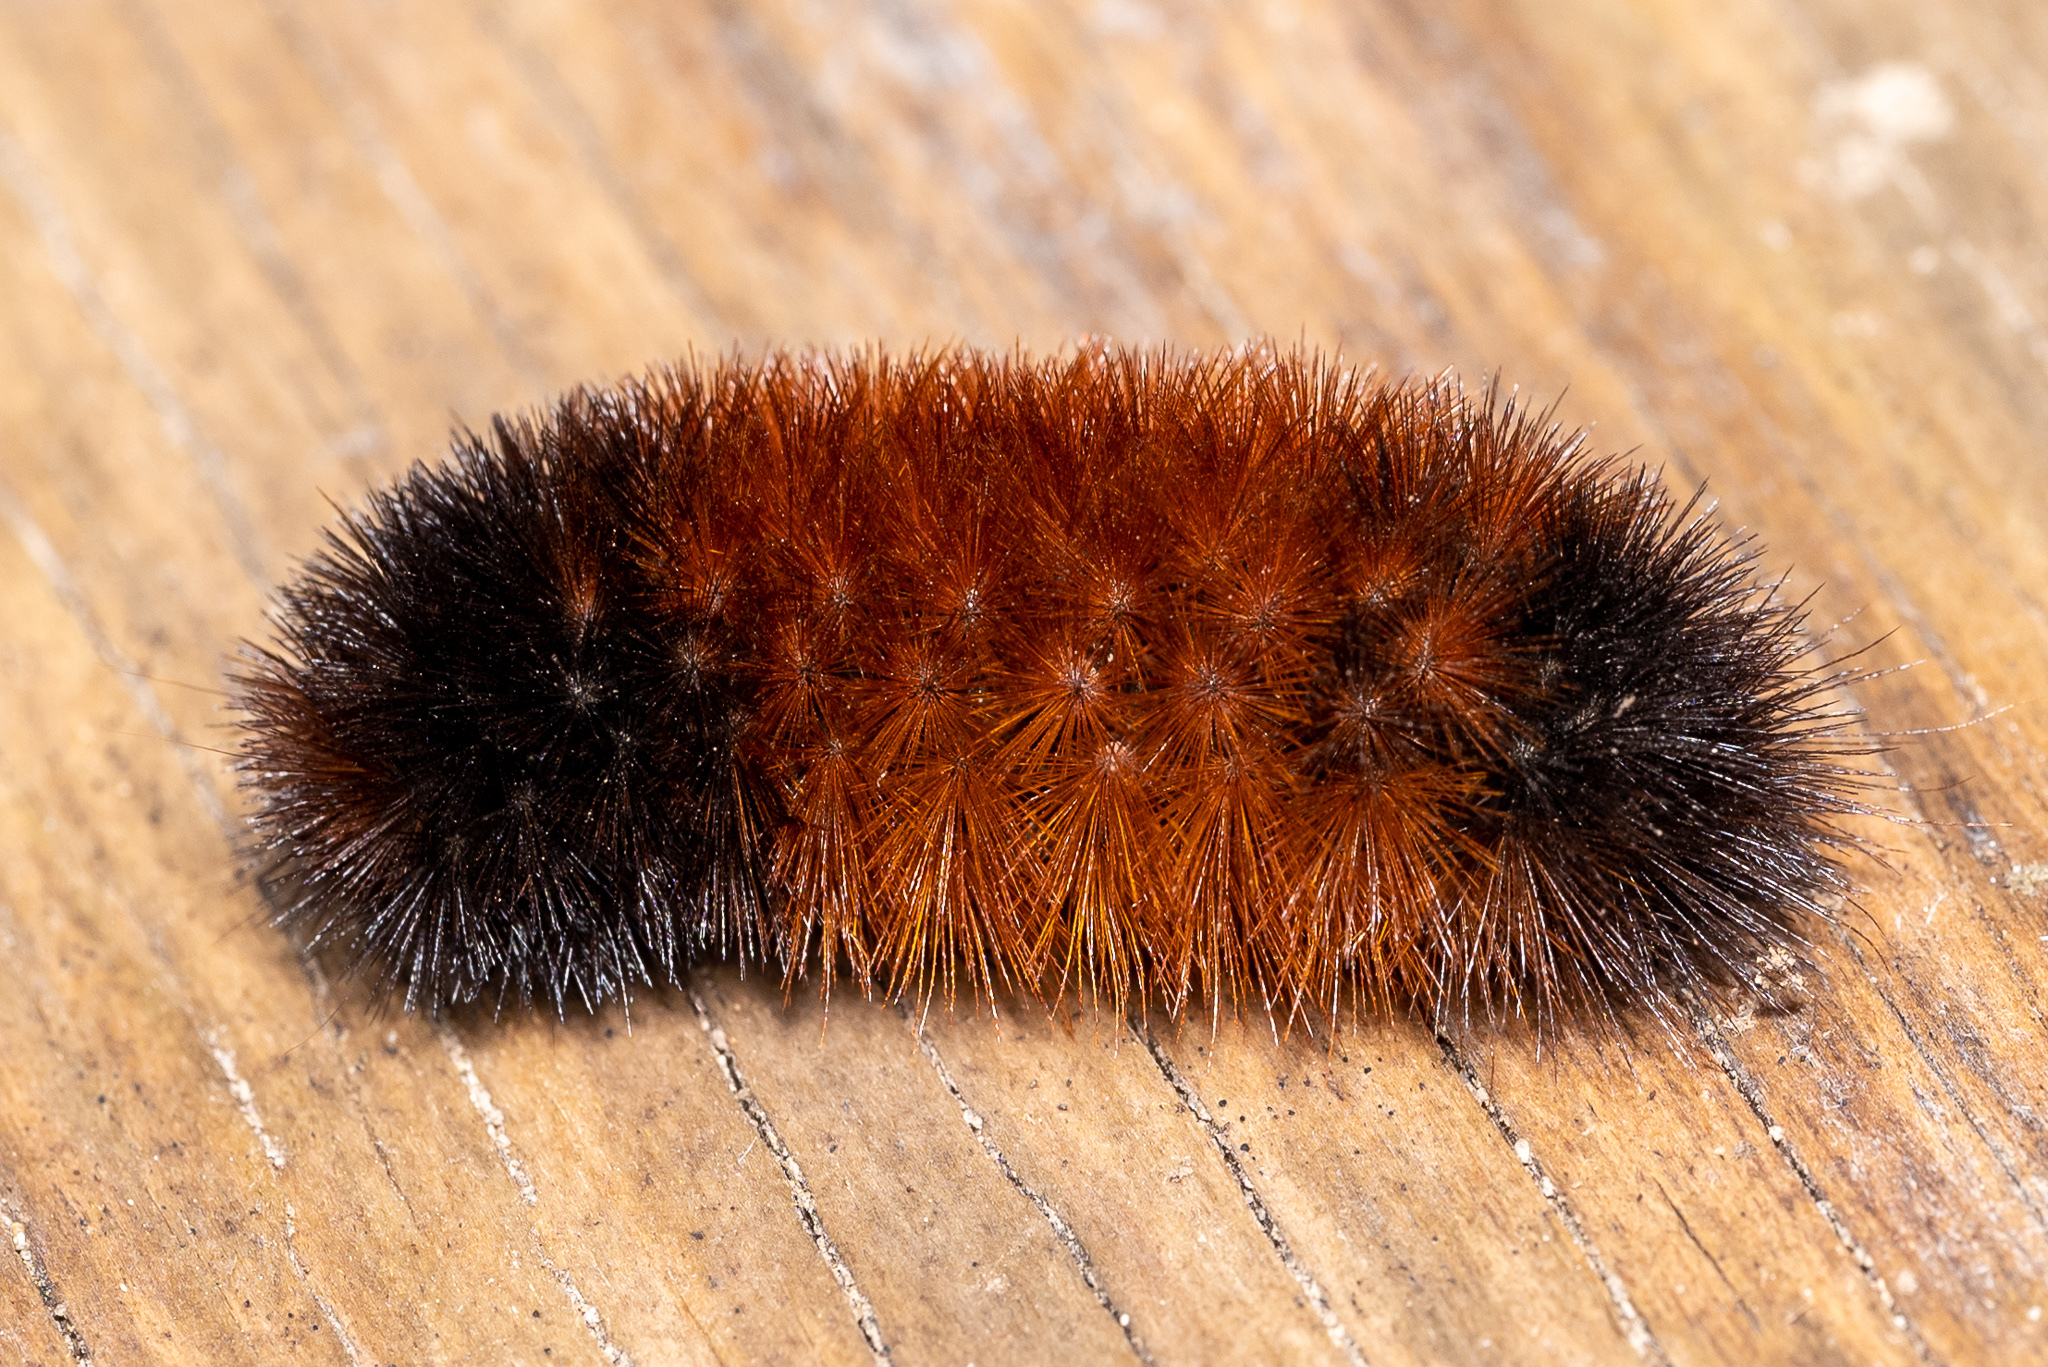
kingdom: Animalia
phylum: Arthropoda
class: Insecta
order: Lepidoptera
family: Erebidae
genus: Pyrrharctia
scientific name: Pyrrharctia isabella
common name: Isabella tiger moth
